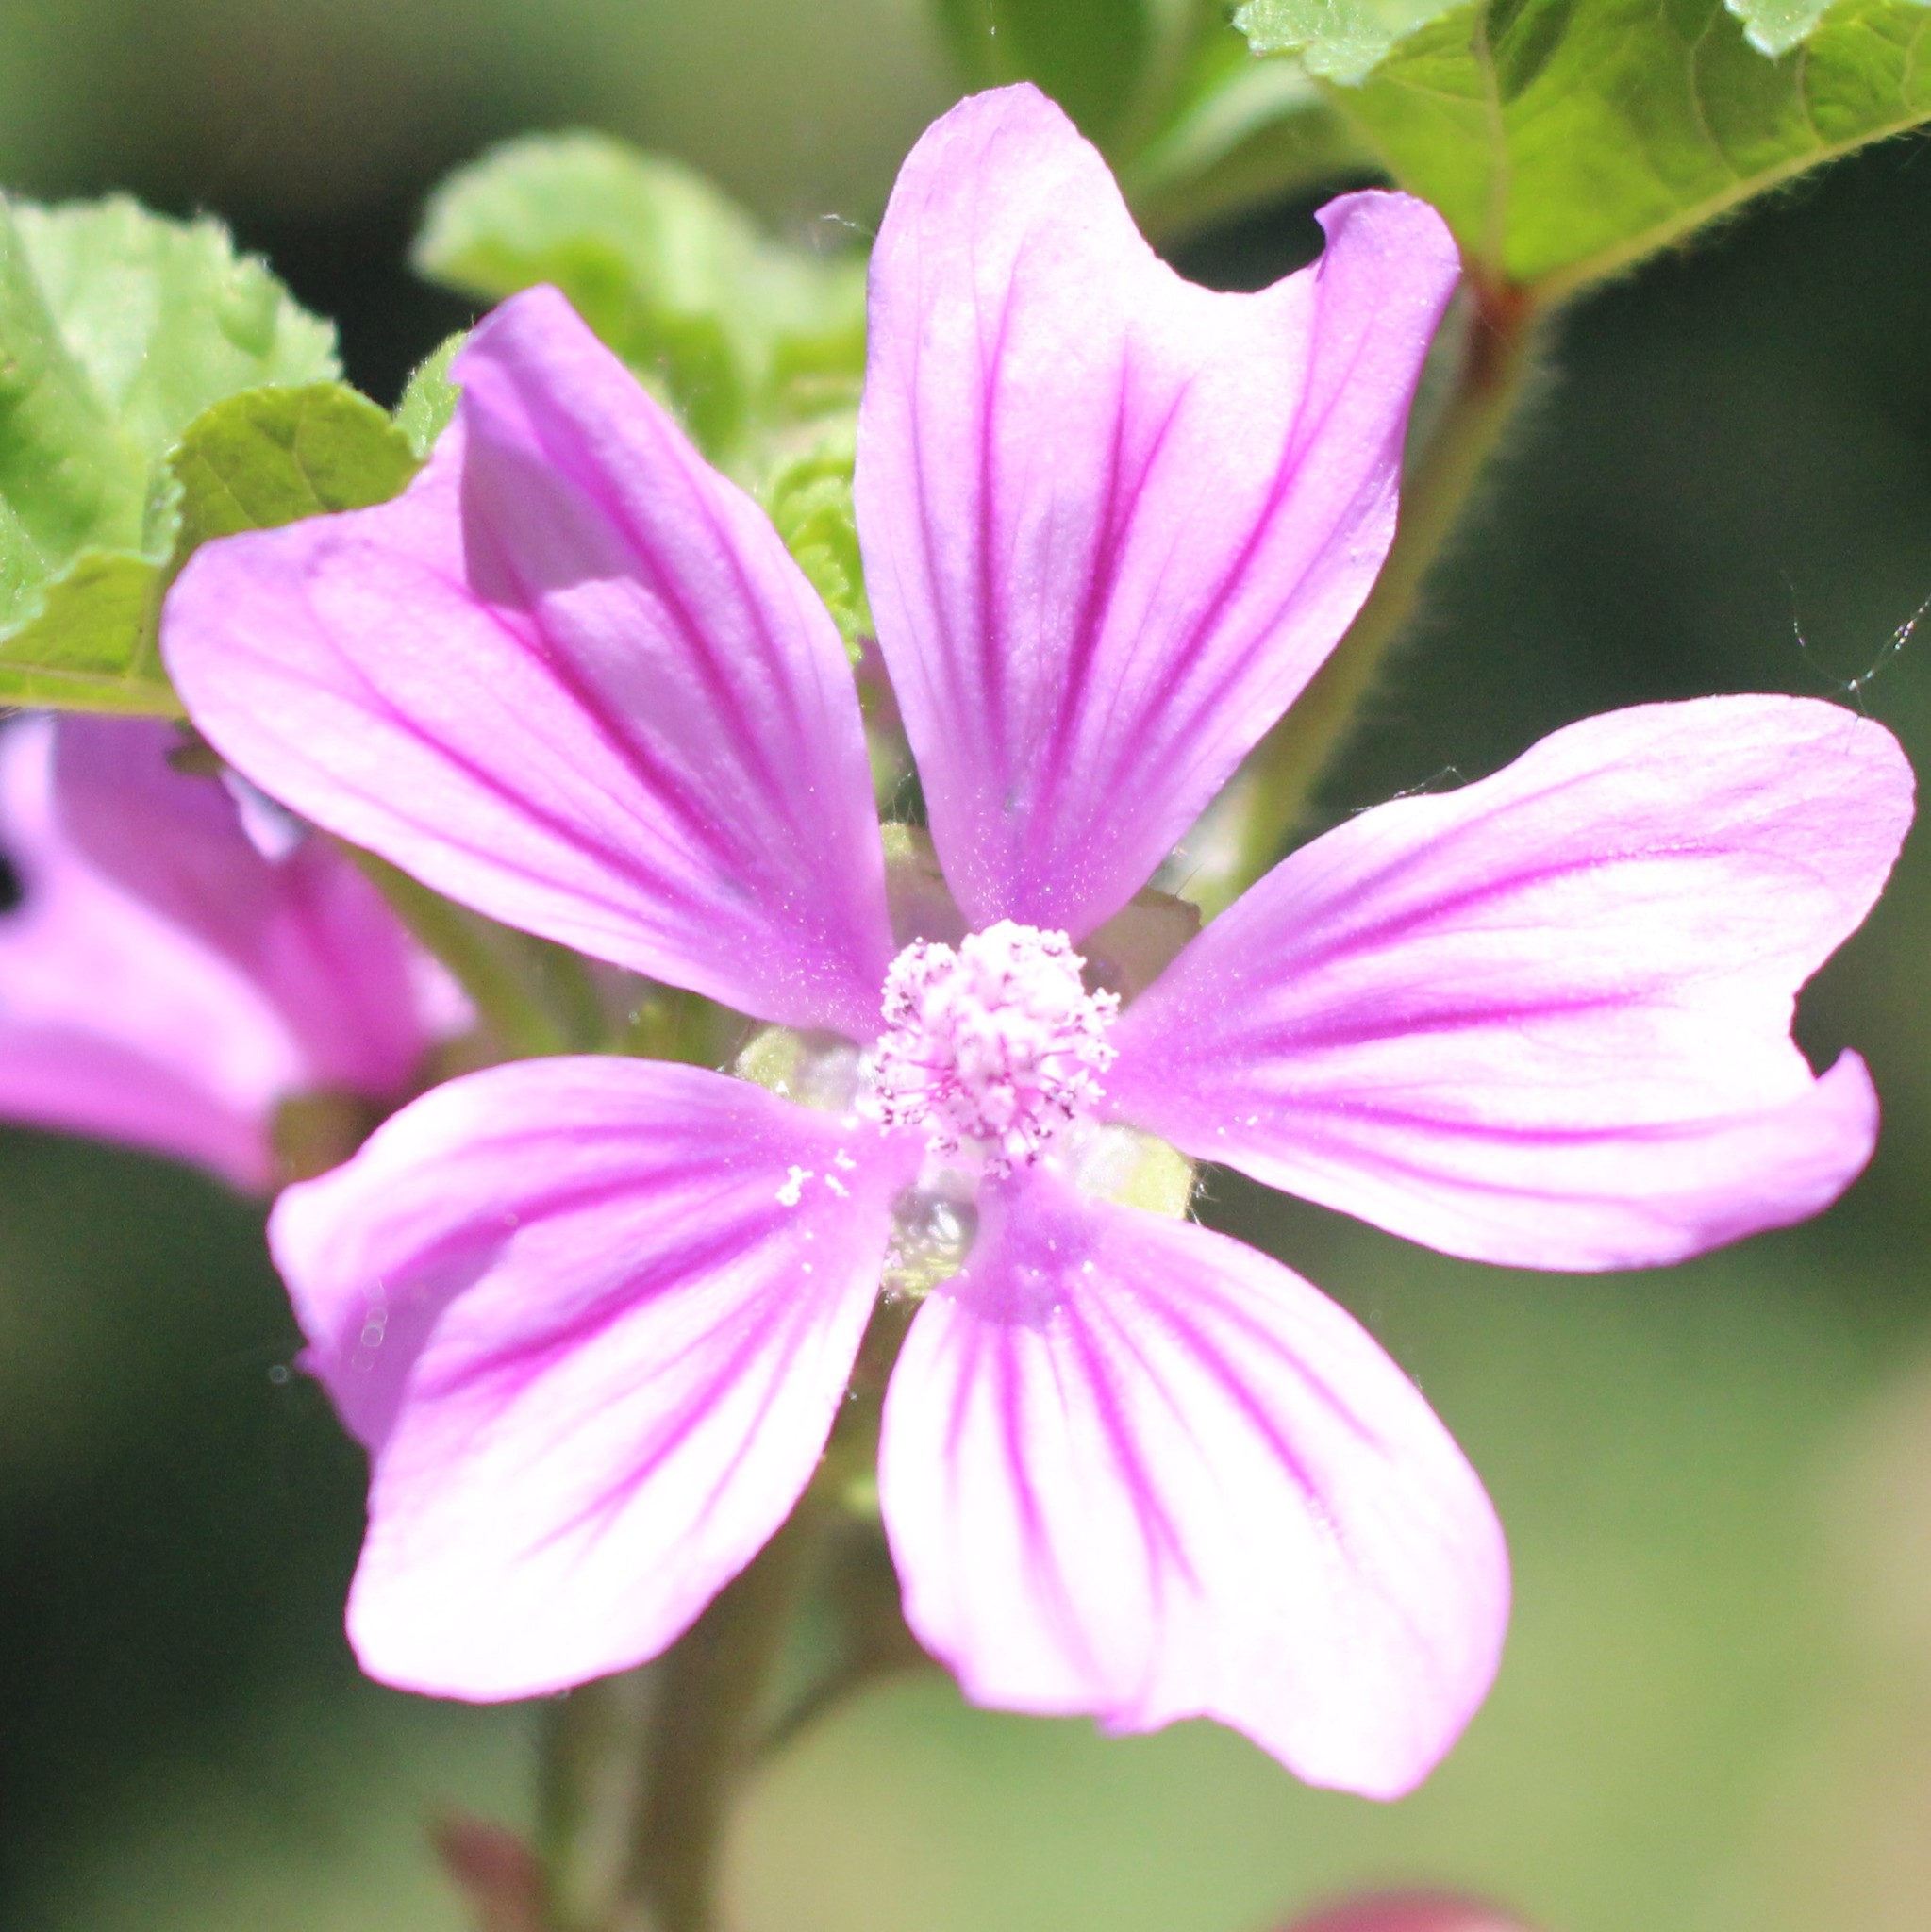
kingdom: Plantae
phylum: Tracheophyta
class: Magnoliopsida
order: Malvales
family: Malvaceae
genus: Malva
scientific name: Malva sylvestris
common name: Common mallow
